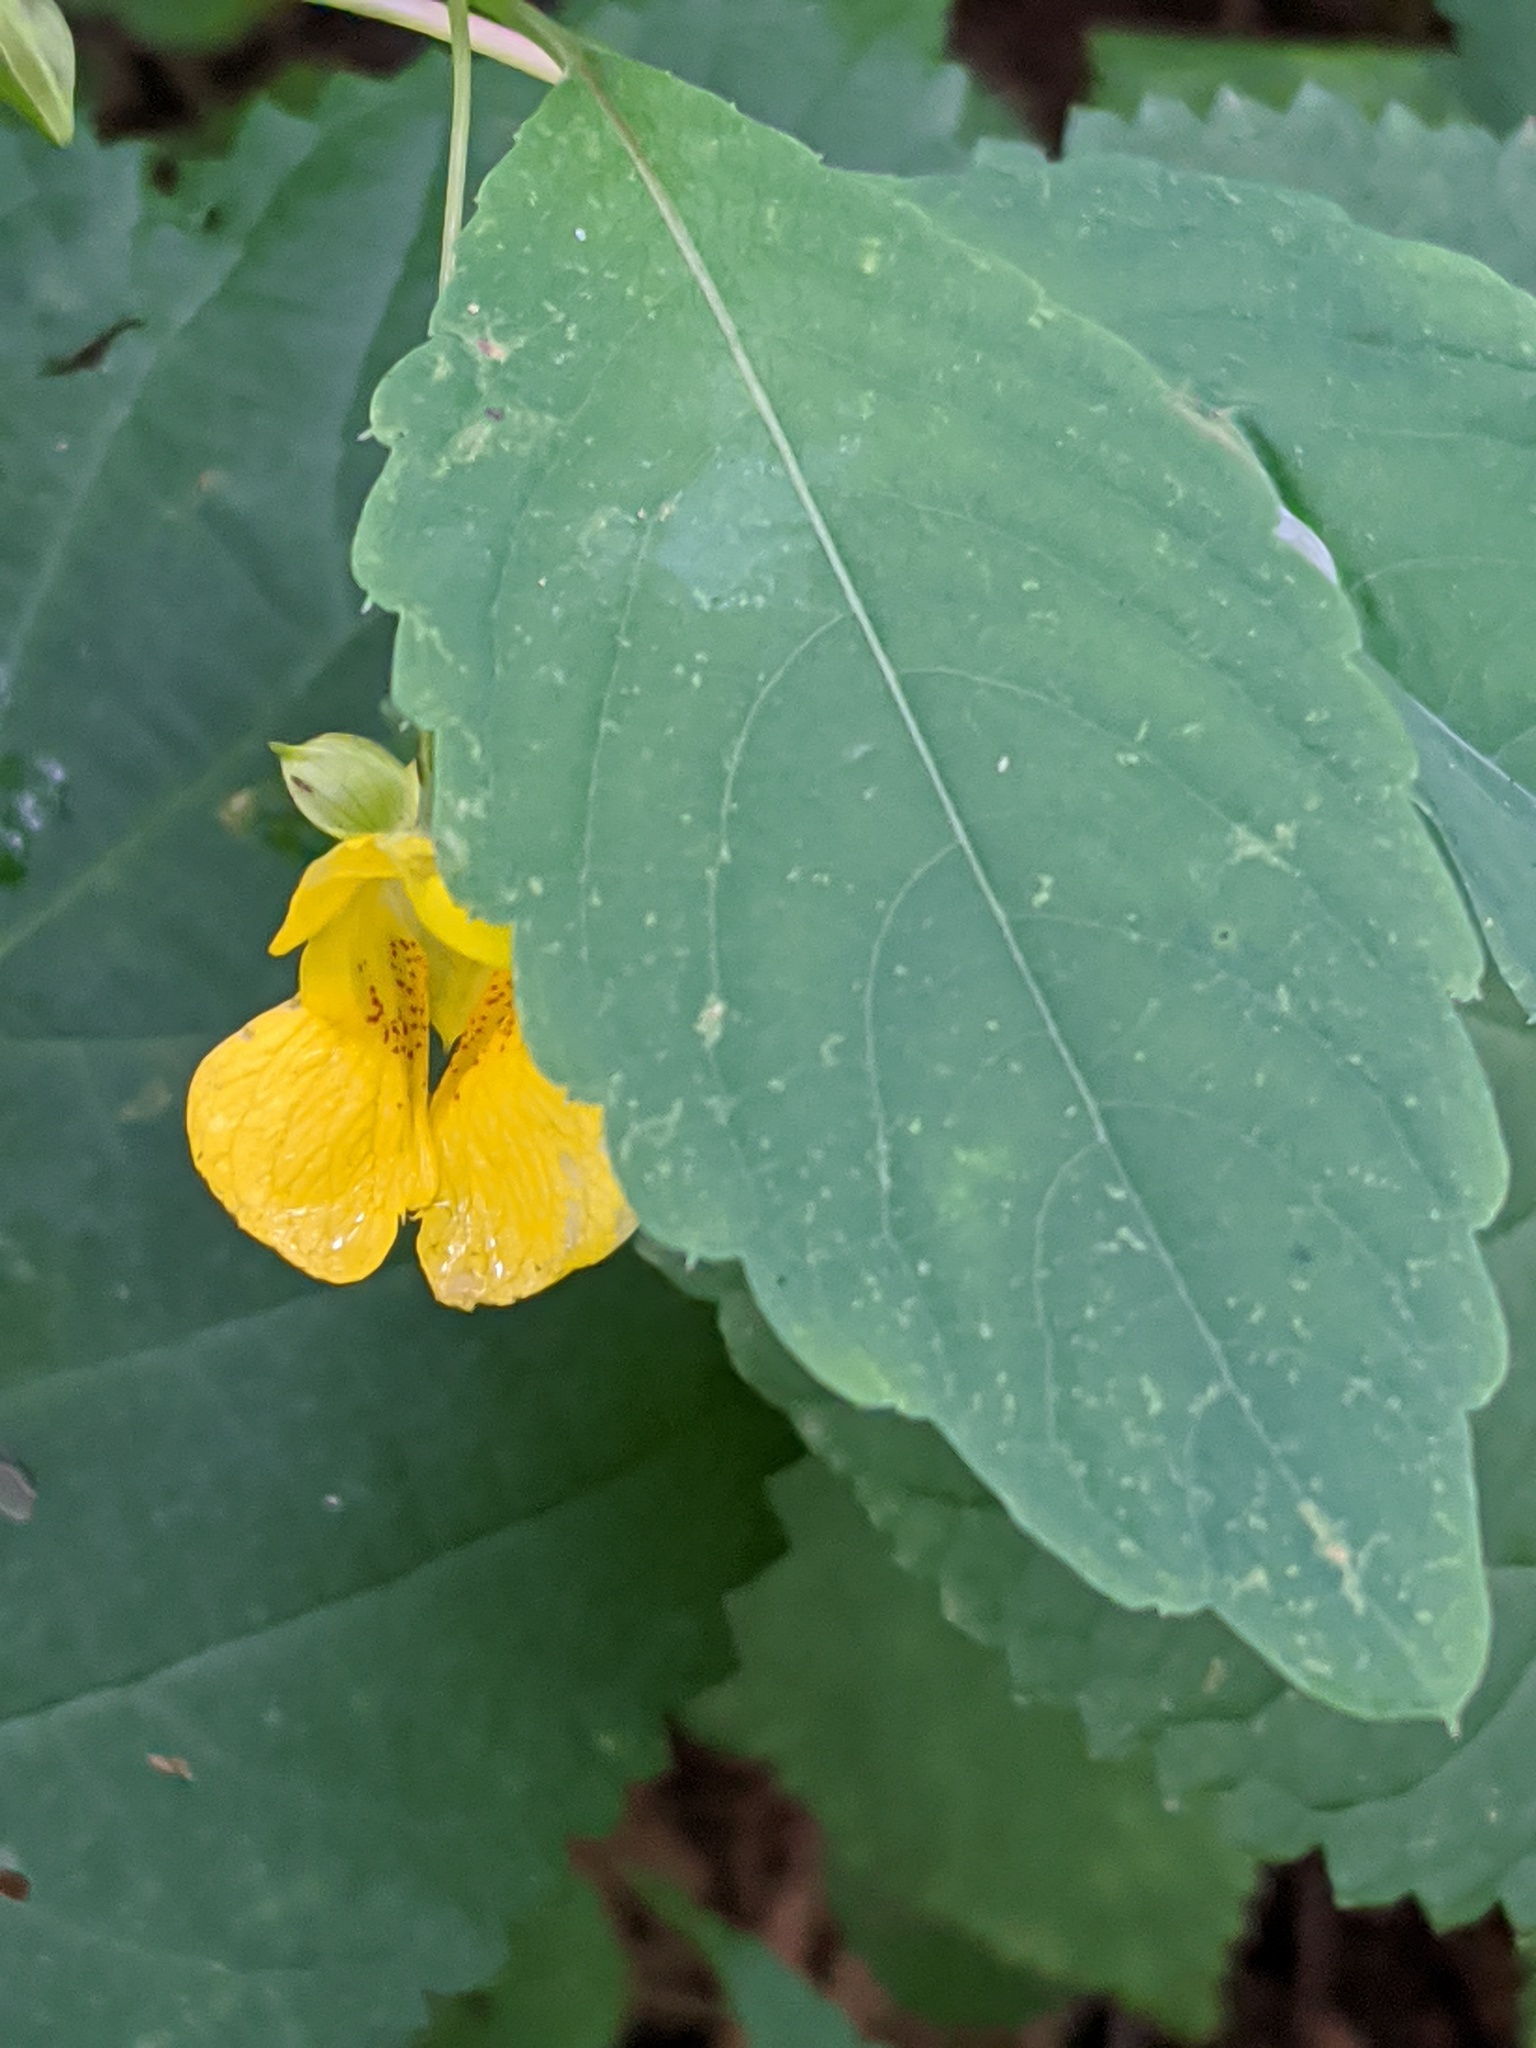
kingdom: Plantae
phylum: Tracheophyta
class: Magnoliopsida
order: Ericales
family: Balsaminaceae
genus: Impatiens
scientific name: Impatiens pallida
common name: Pale snapweed
